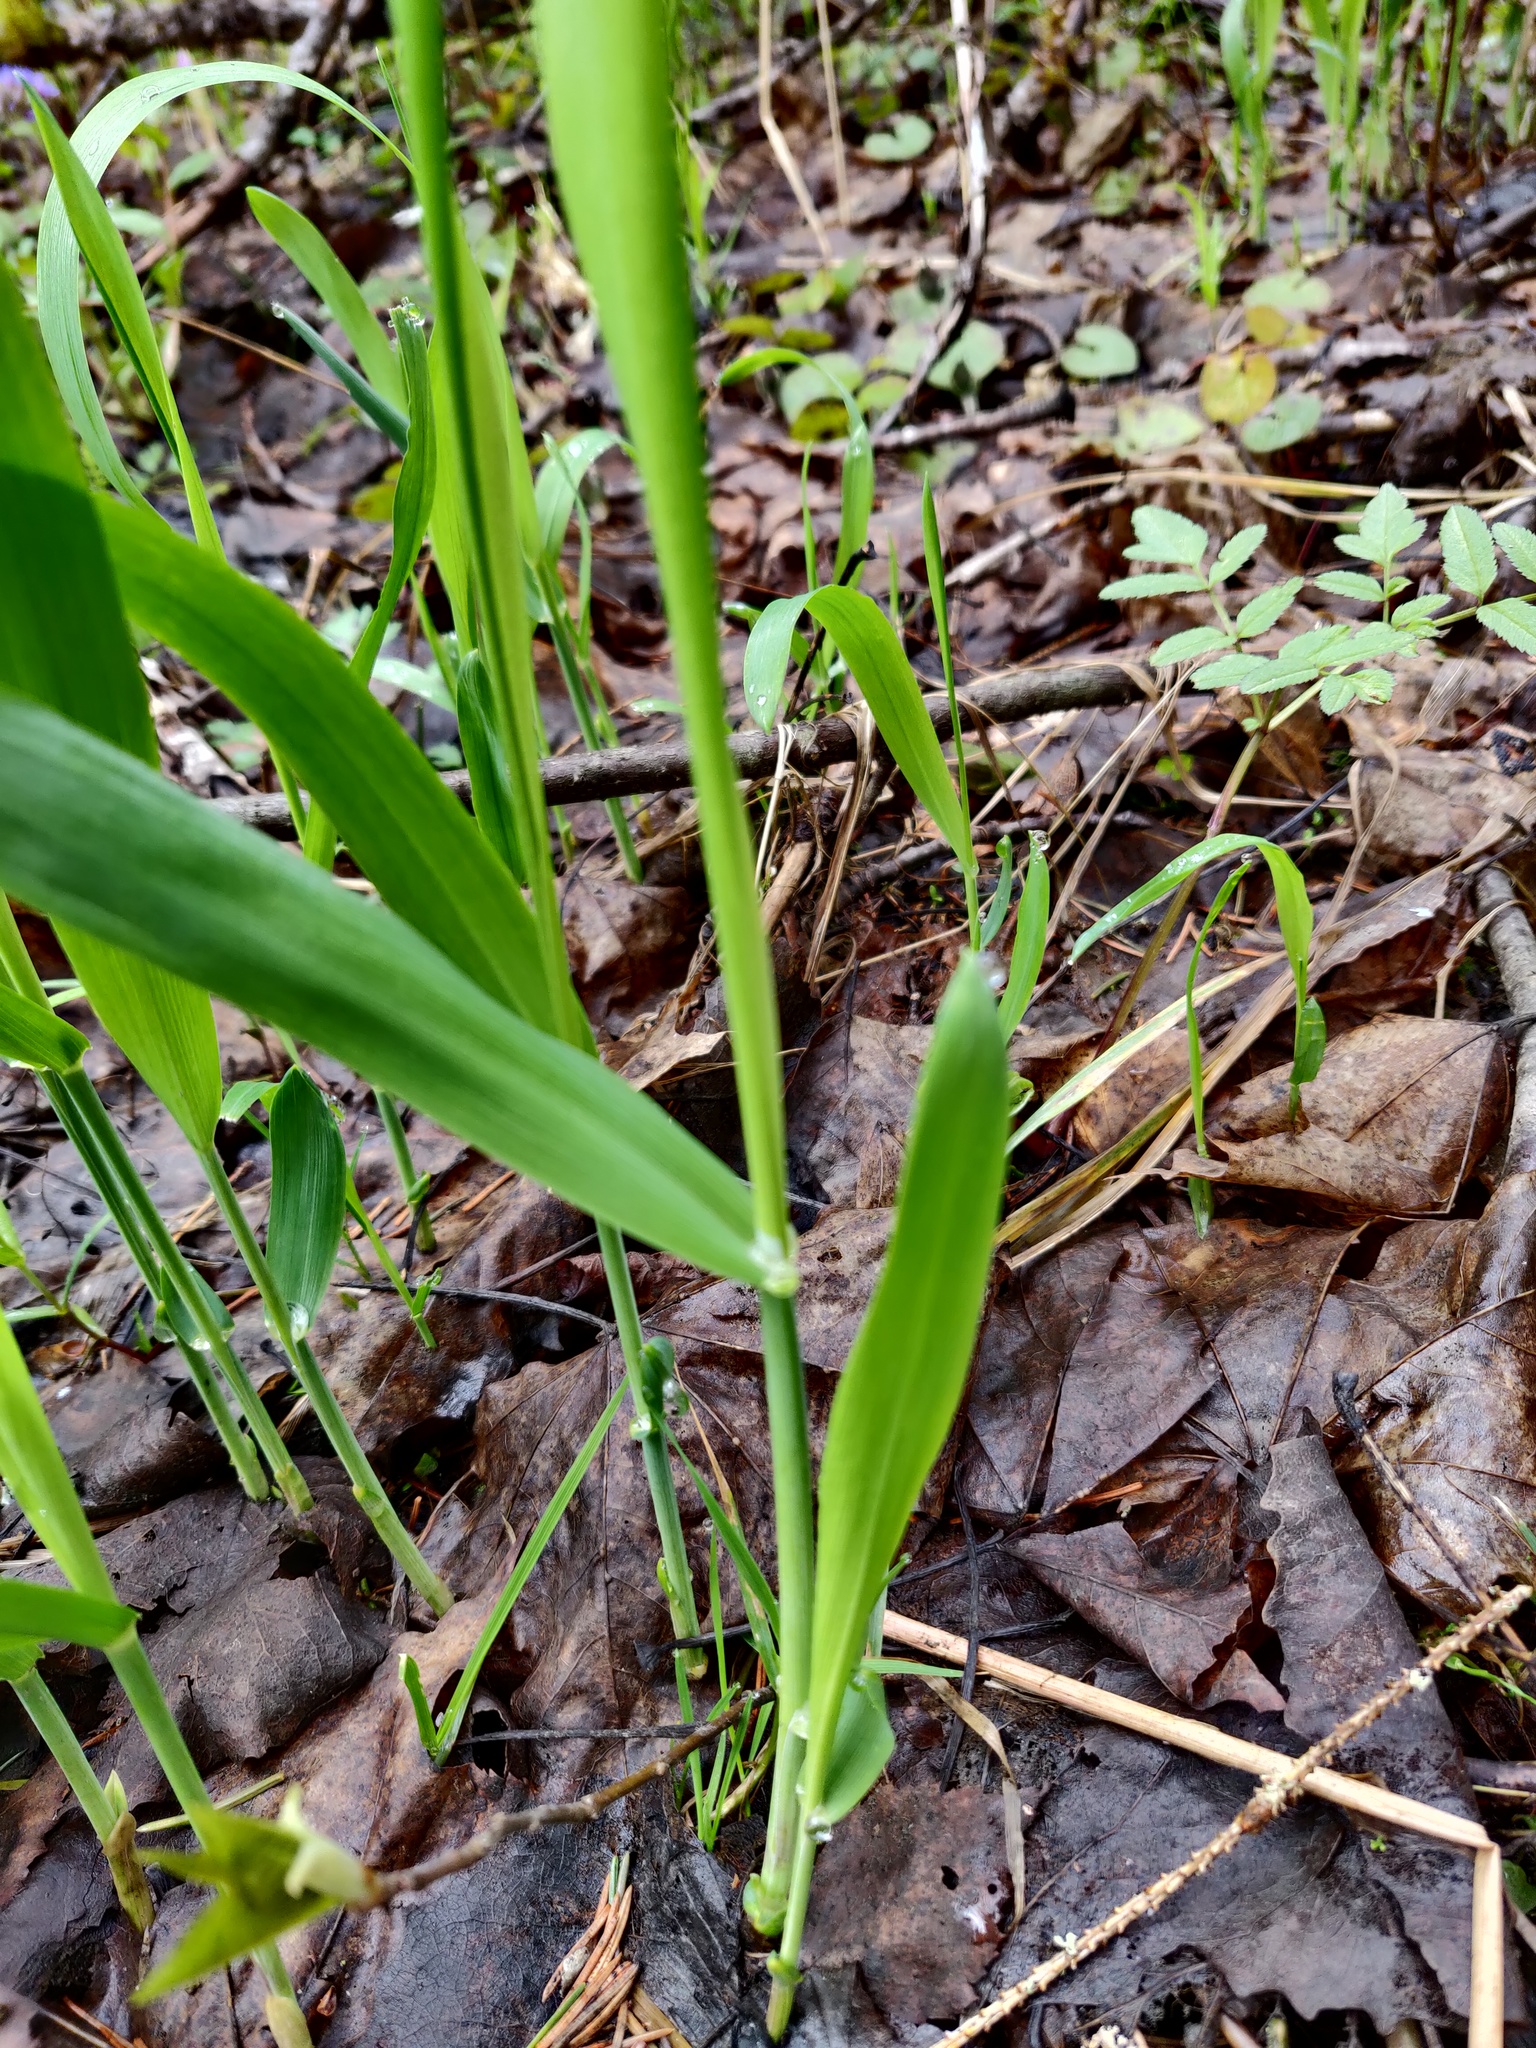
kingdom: Plantae
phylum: Tracheophyta
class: Liliopsida
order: Poales
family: Poaceae
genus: Milium
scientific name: Milium effusum
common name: Wood millet
